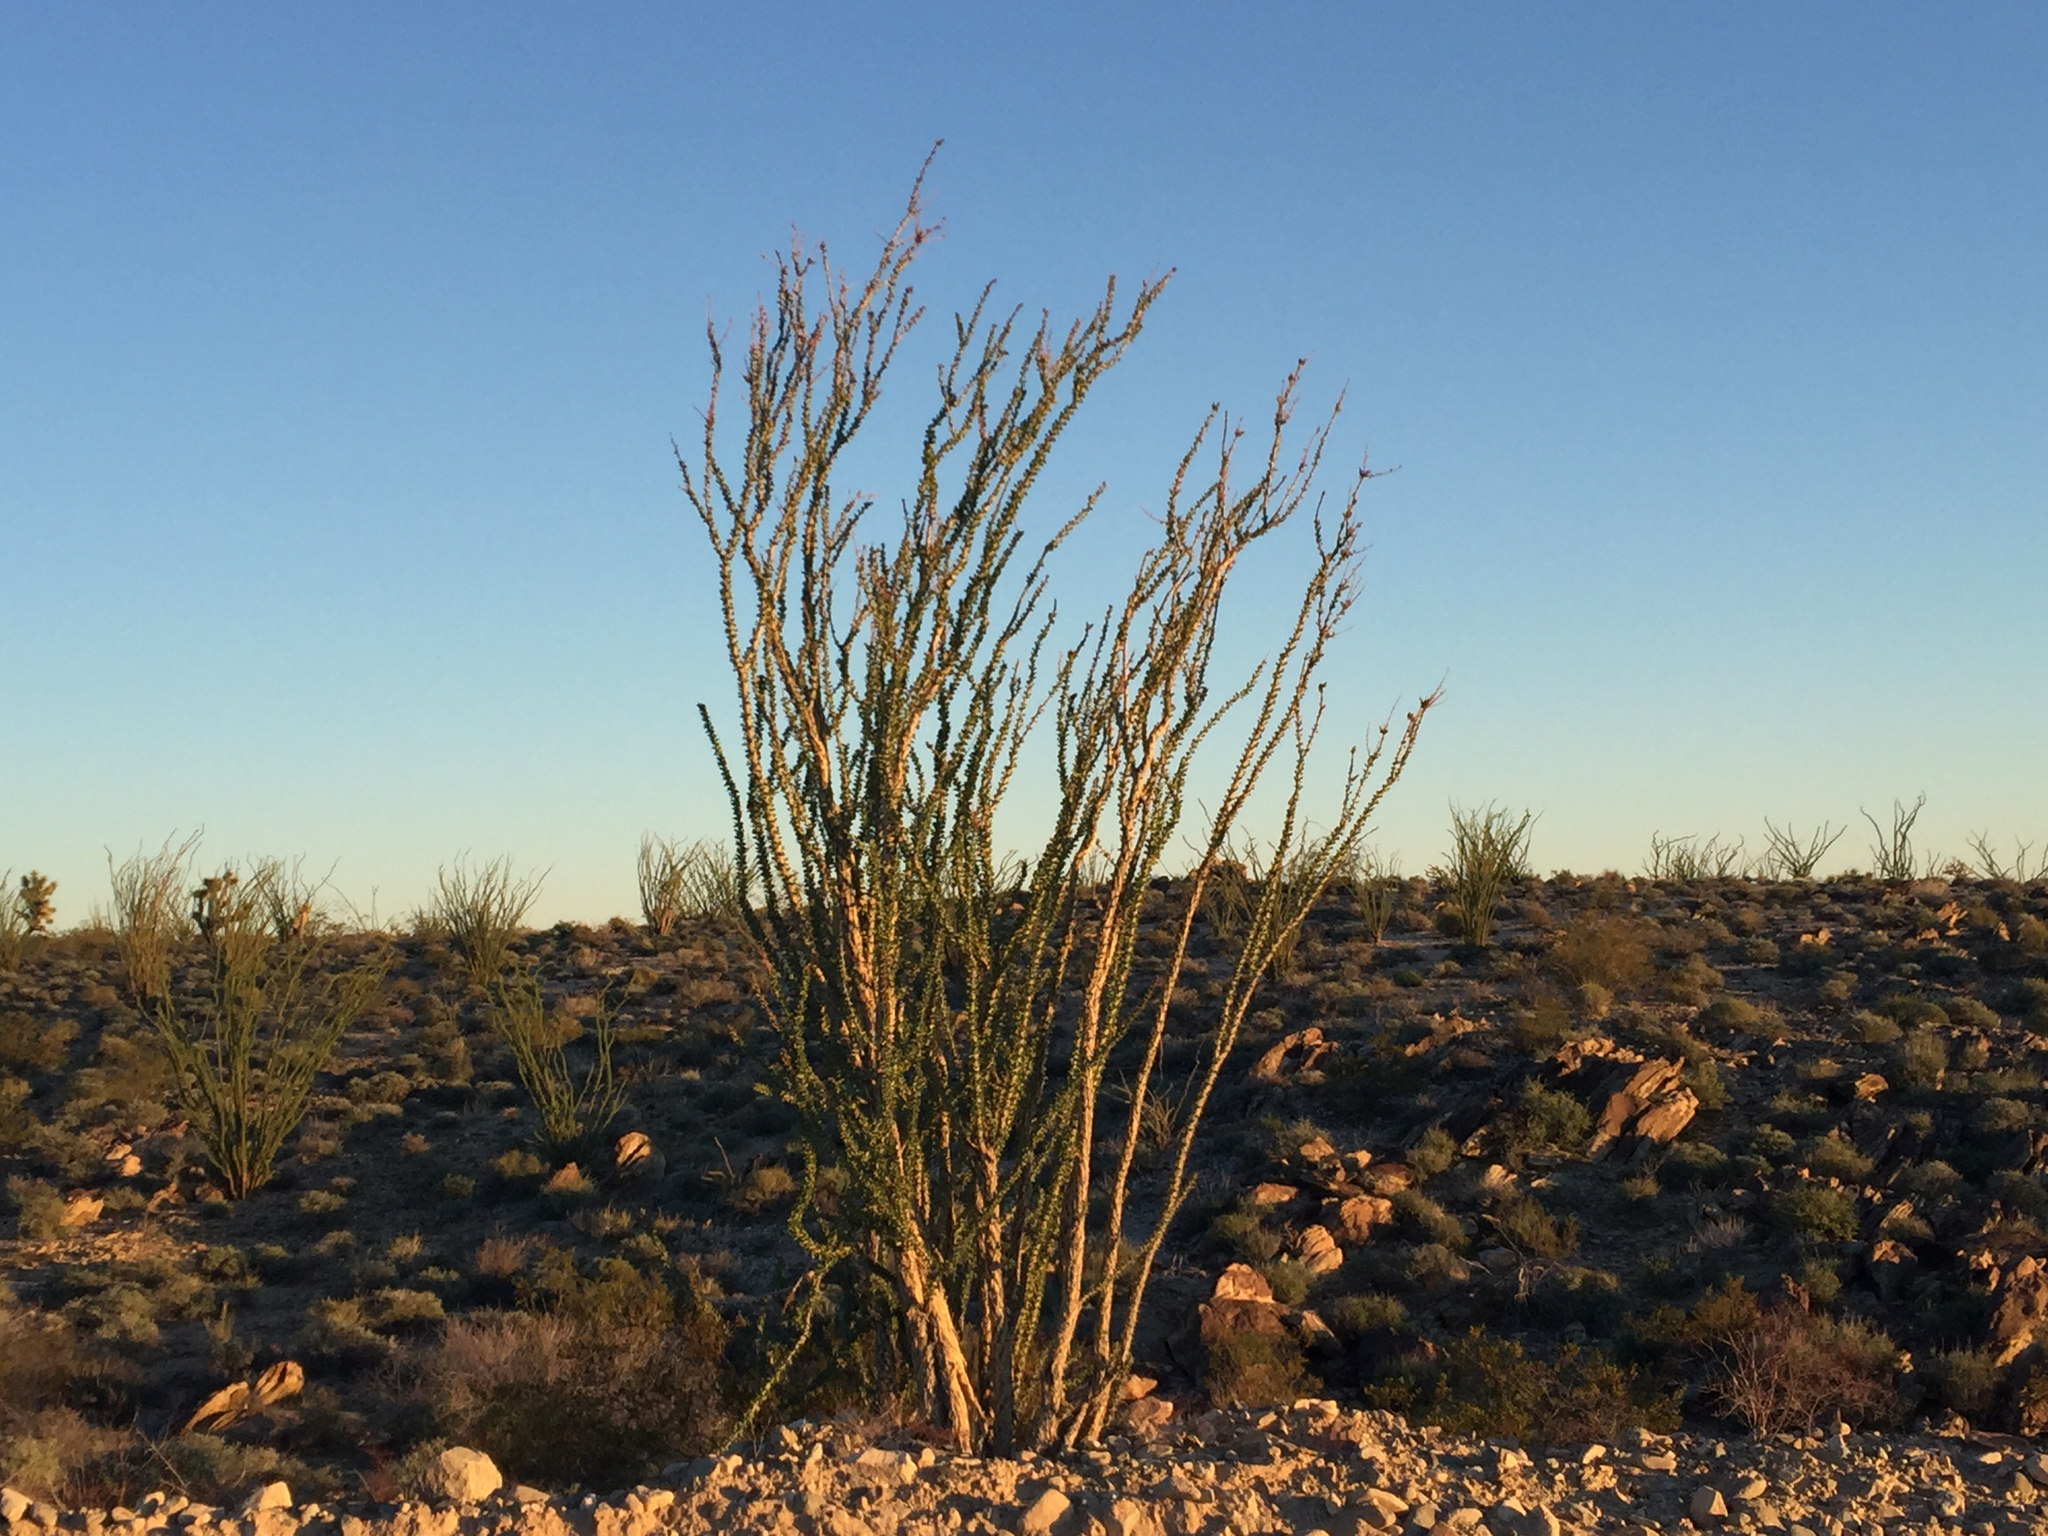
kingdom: Plantae
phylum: Tracheophyta
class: Magnoliopsida
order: Ericales
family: Fouquieriaceae
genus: Fouquieria
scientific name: Fouquieria splendens
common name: Vine-cactus
